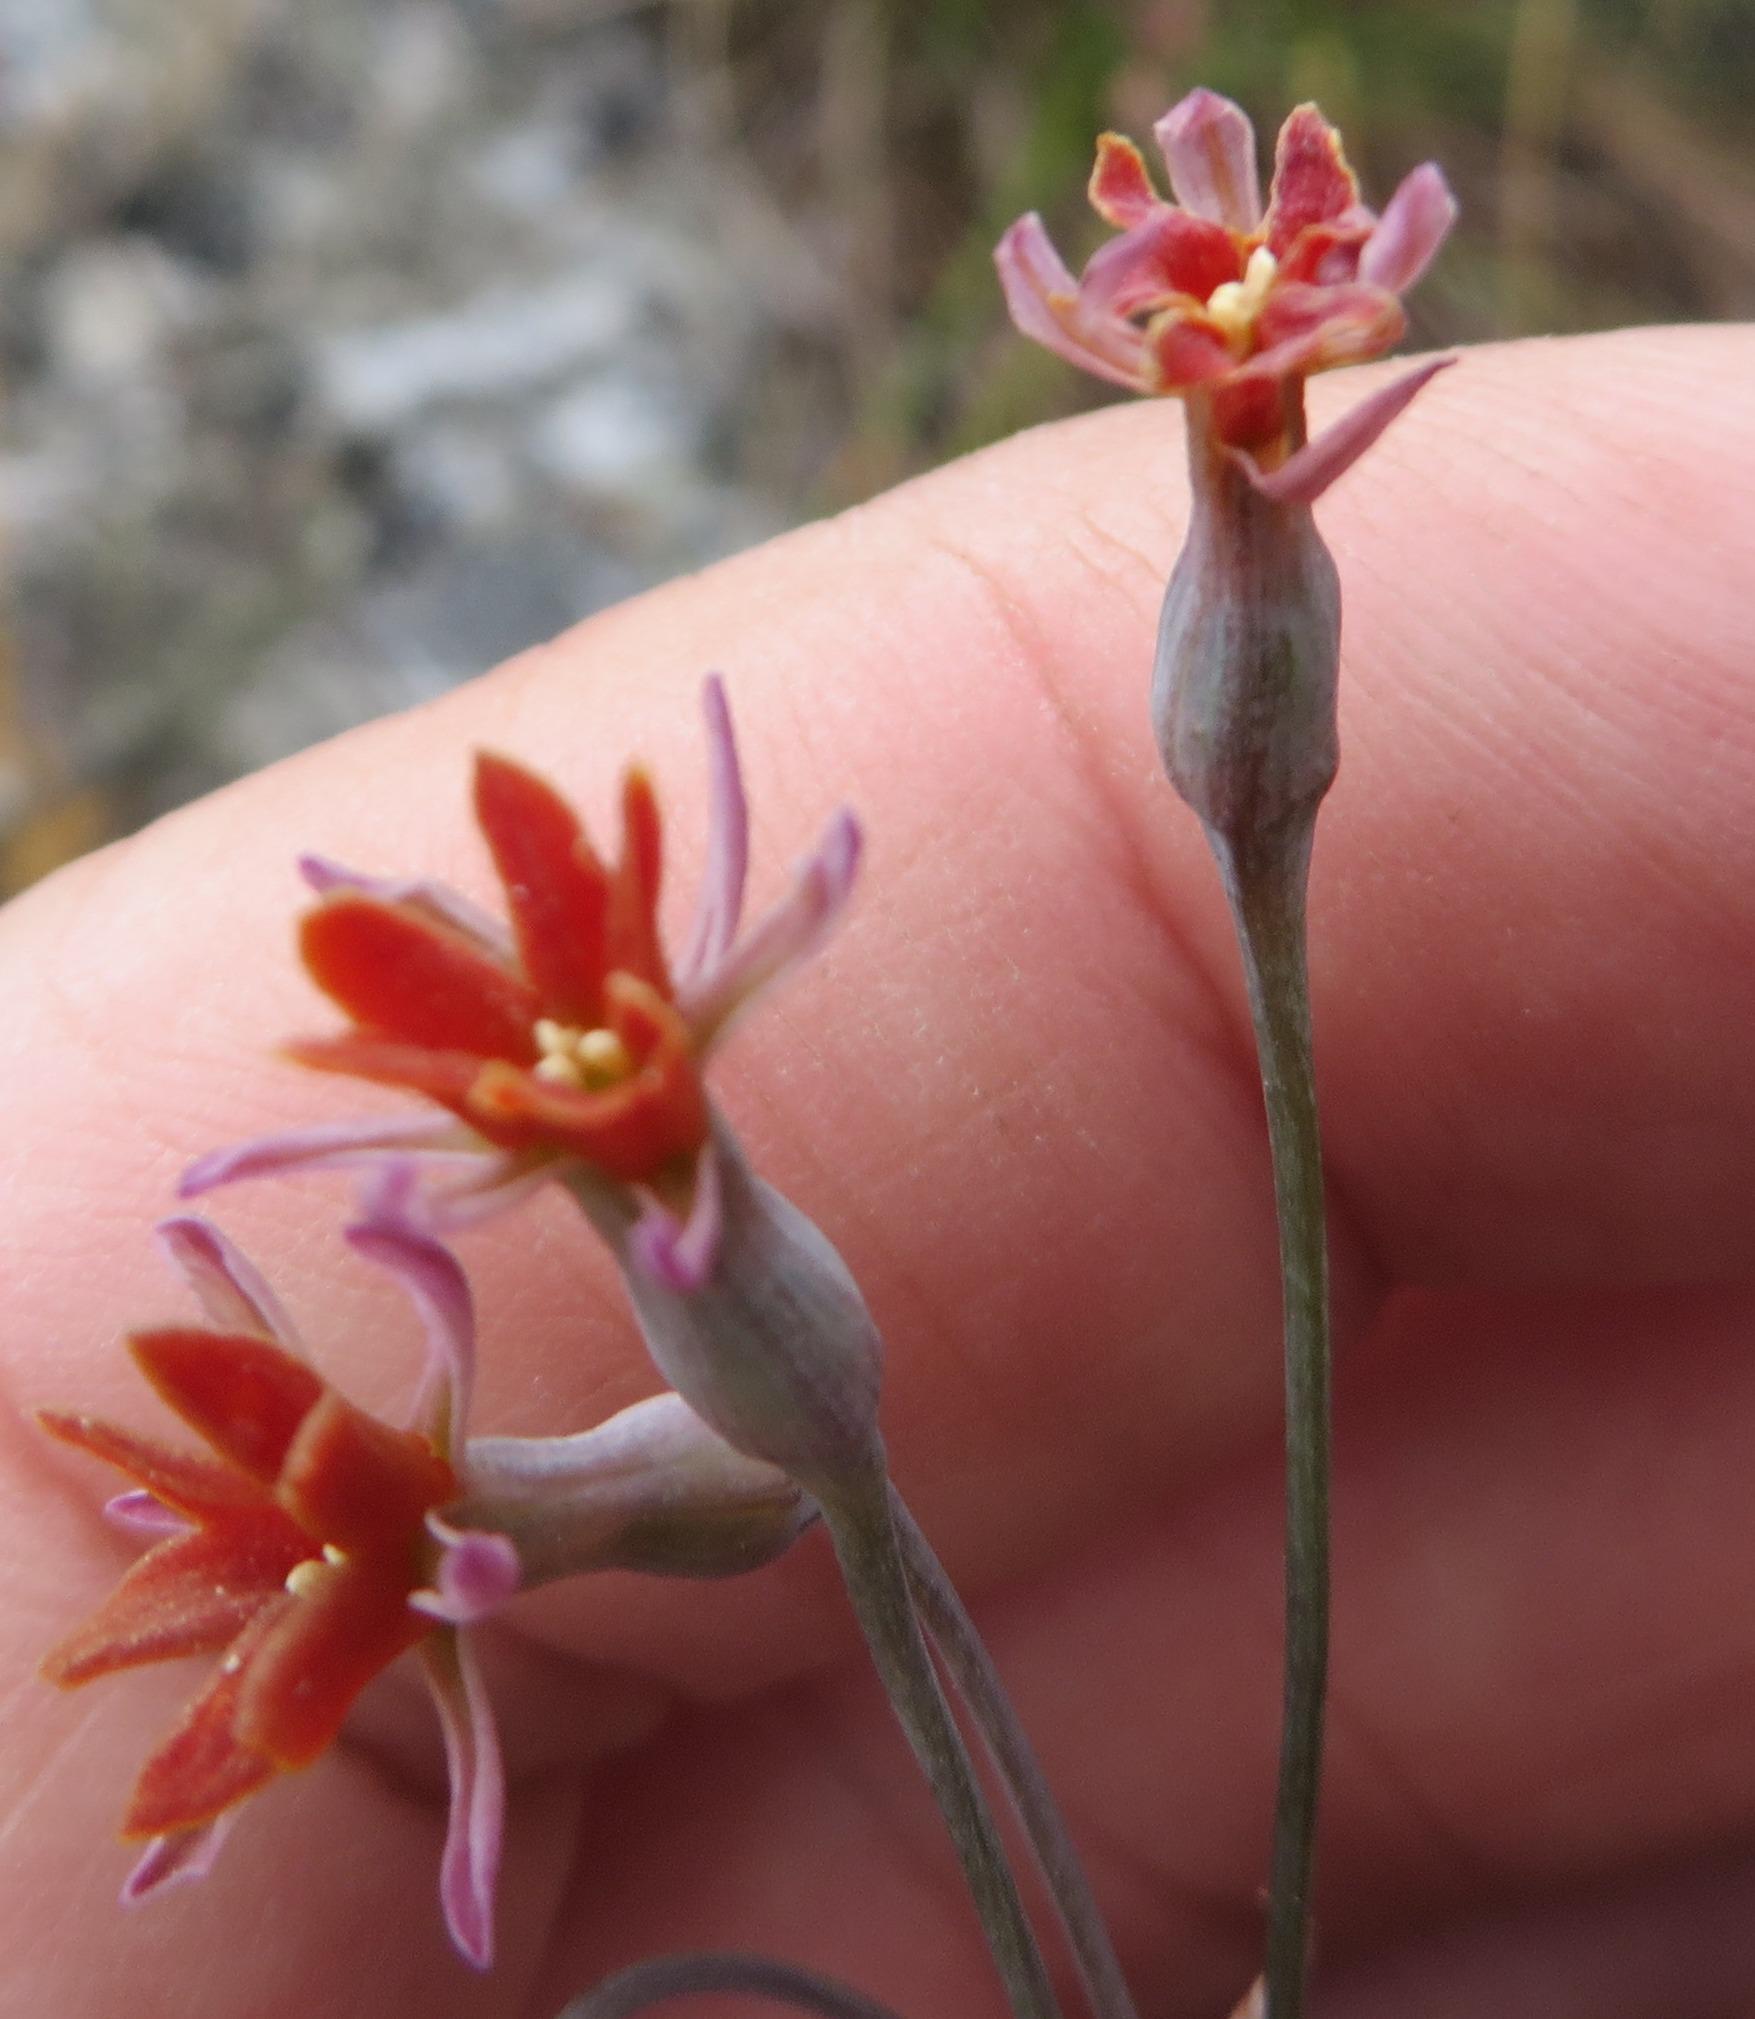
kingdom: Plantae
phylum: Tracheophyta
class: Liliopsida
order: Asparagales
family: Amaryllidaceae
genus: Tulbaghia
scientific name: Tulbaghia capensis
